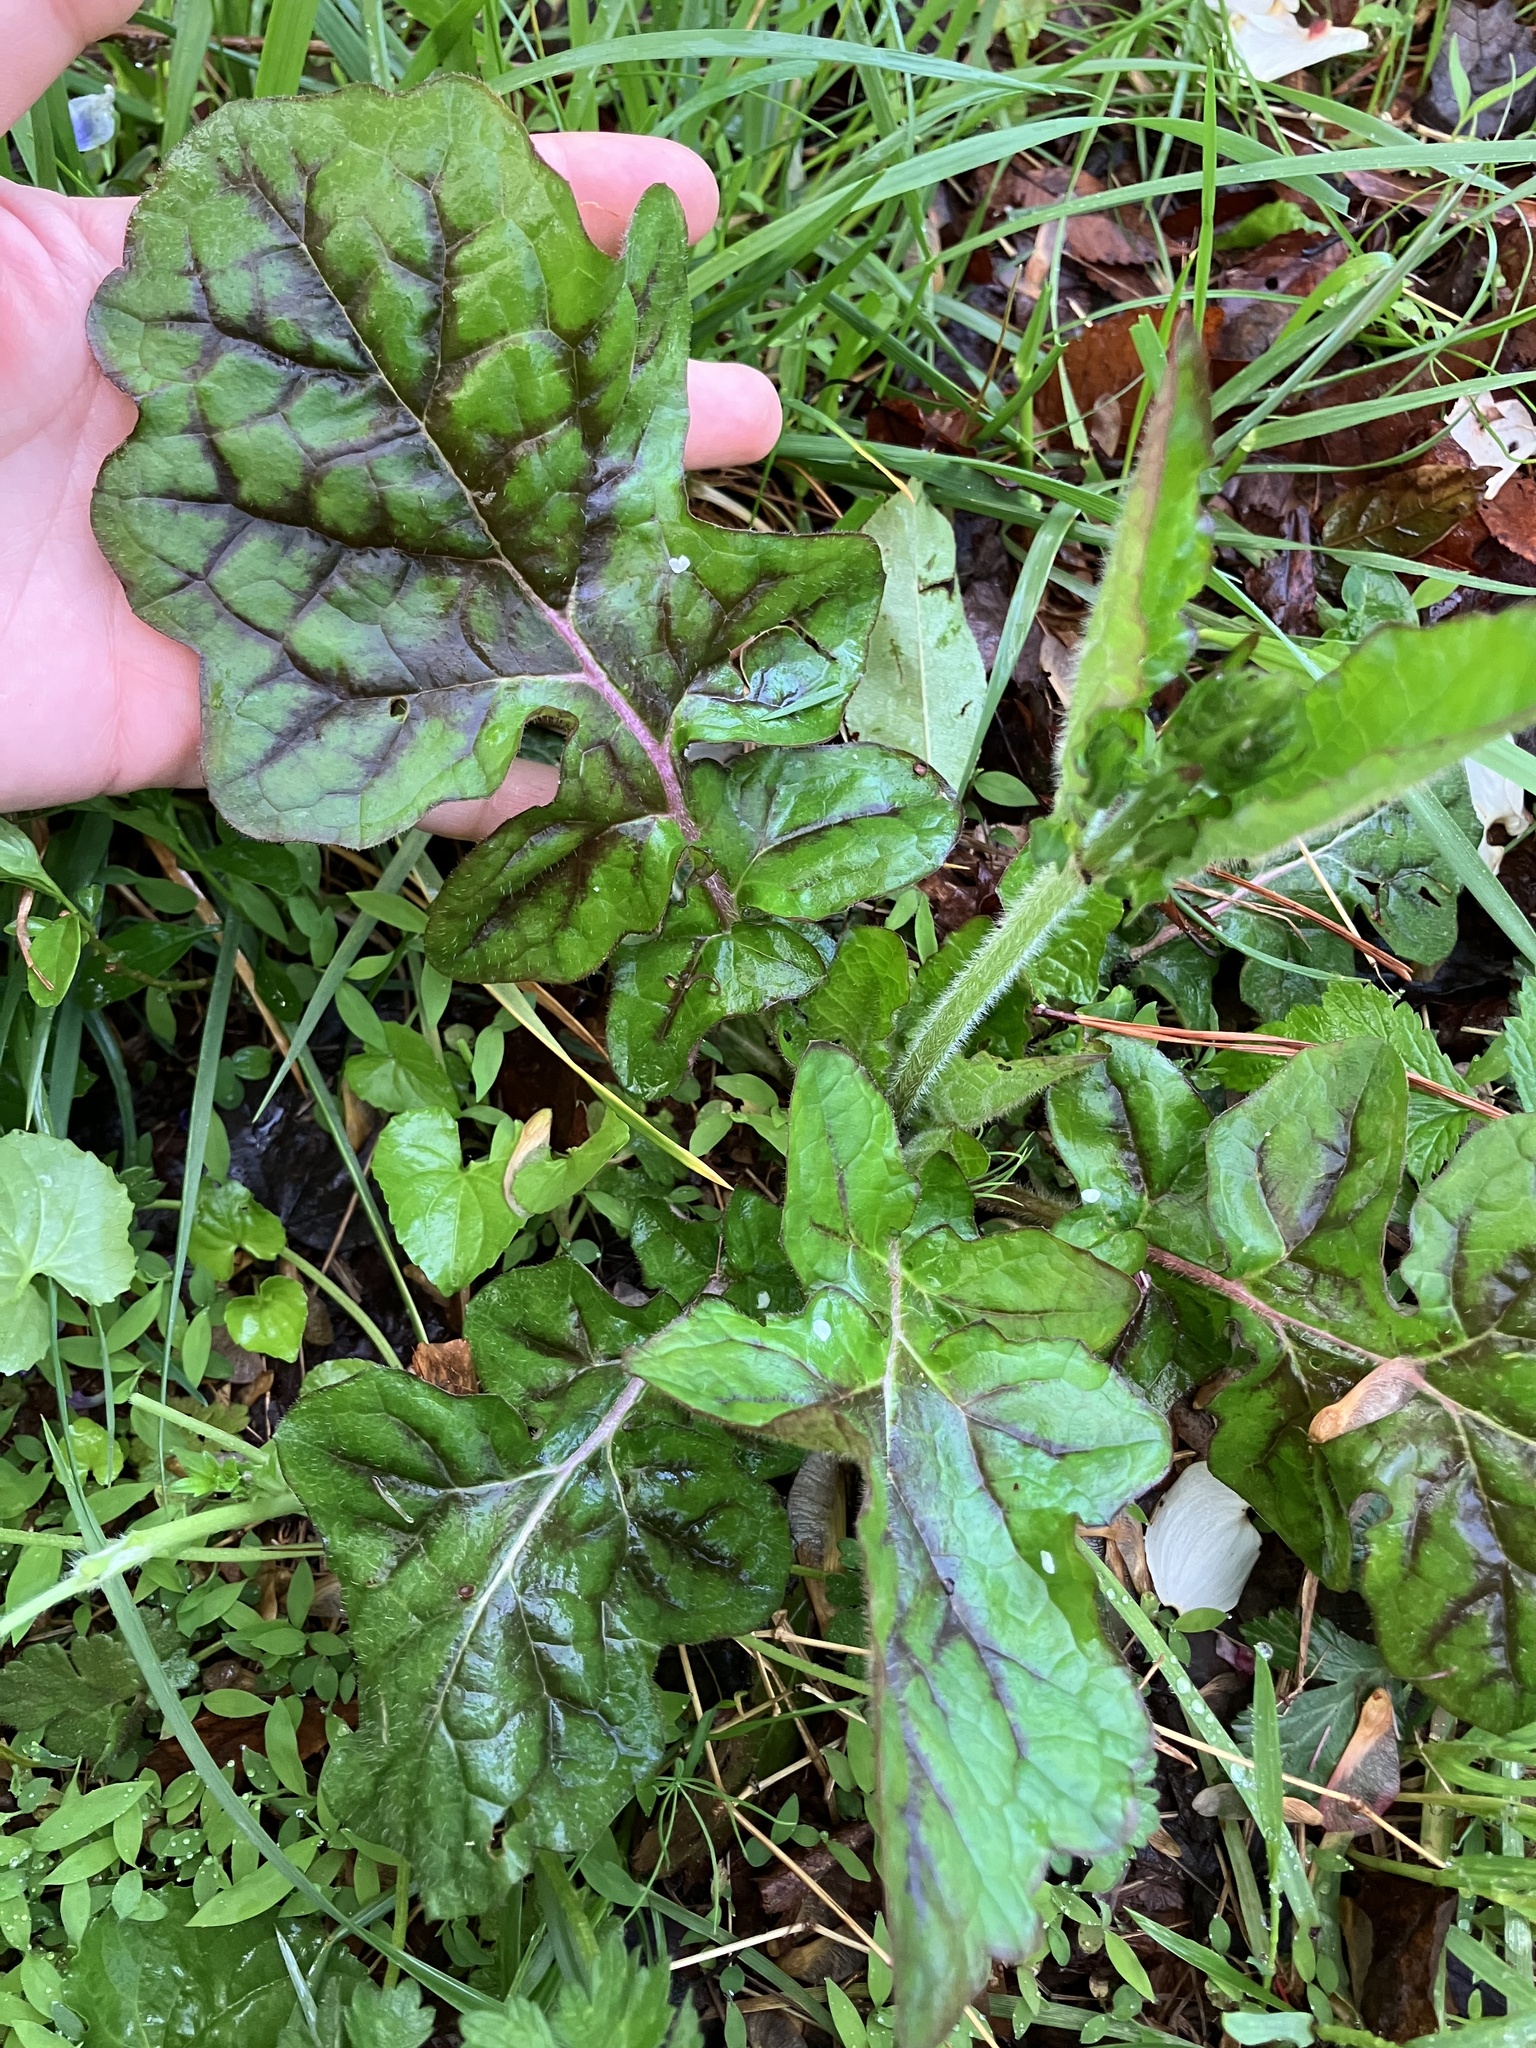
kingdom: Plantae
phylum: Tracheophyta
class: Magnoliopsida
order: Lamiales
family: Lamiaceae
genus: Salvia
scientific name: Salvia lyrata
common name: Cancerweed
